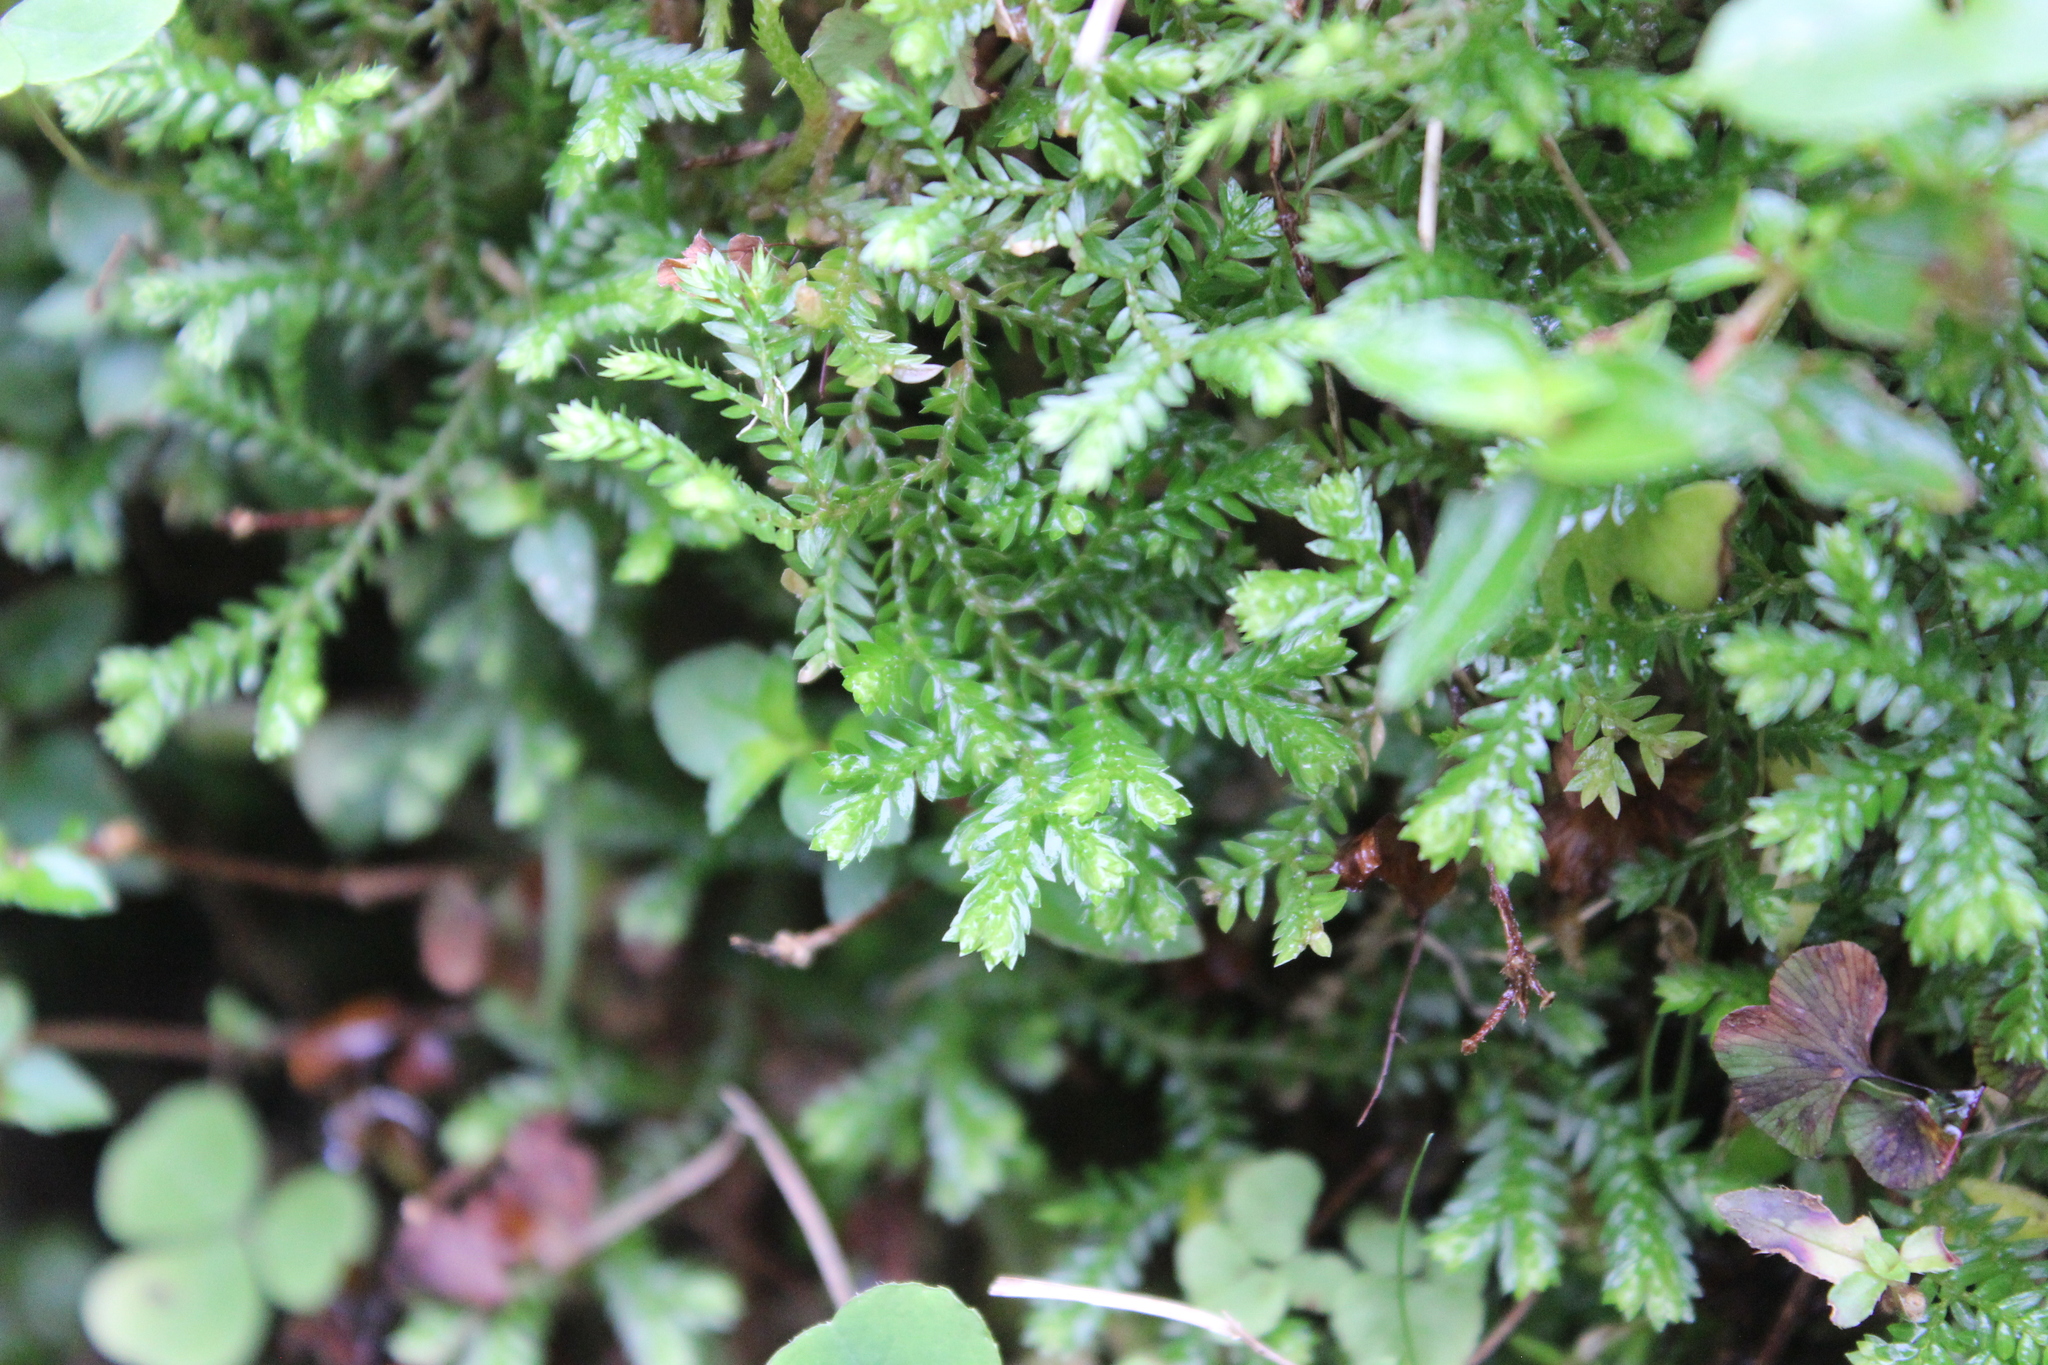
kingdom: Plantae
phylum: Tracheophyta
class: Lycopodiopsida
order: Selaginellales
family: Selaginellaceae
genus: Selaginella
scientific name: Selaginella kraussiana
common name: Krauss' spikemoss
